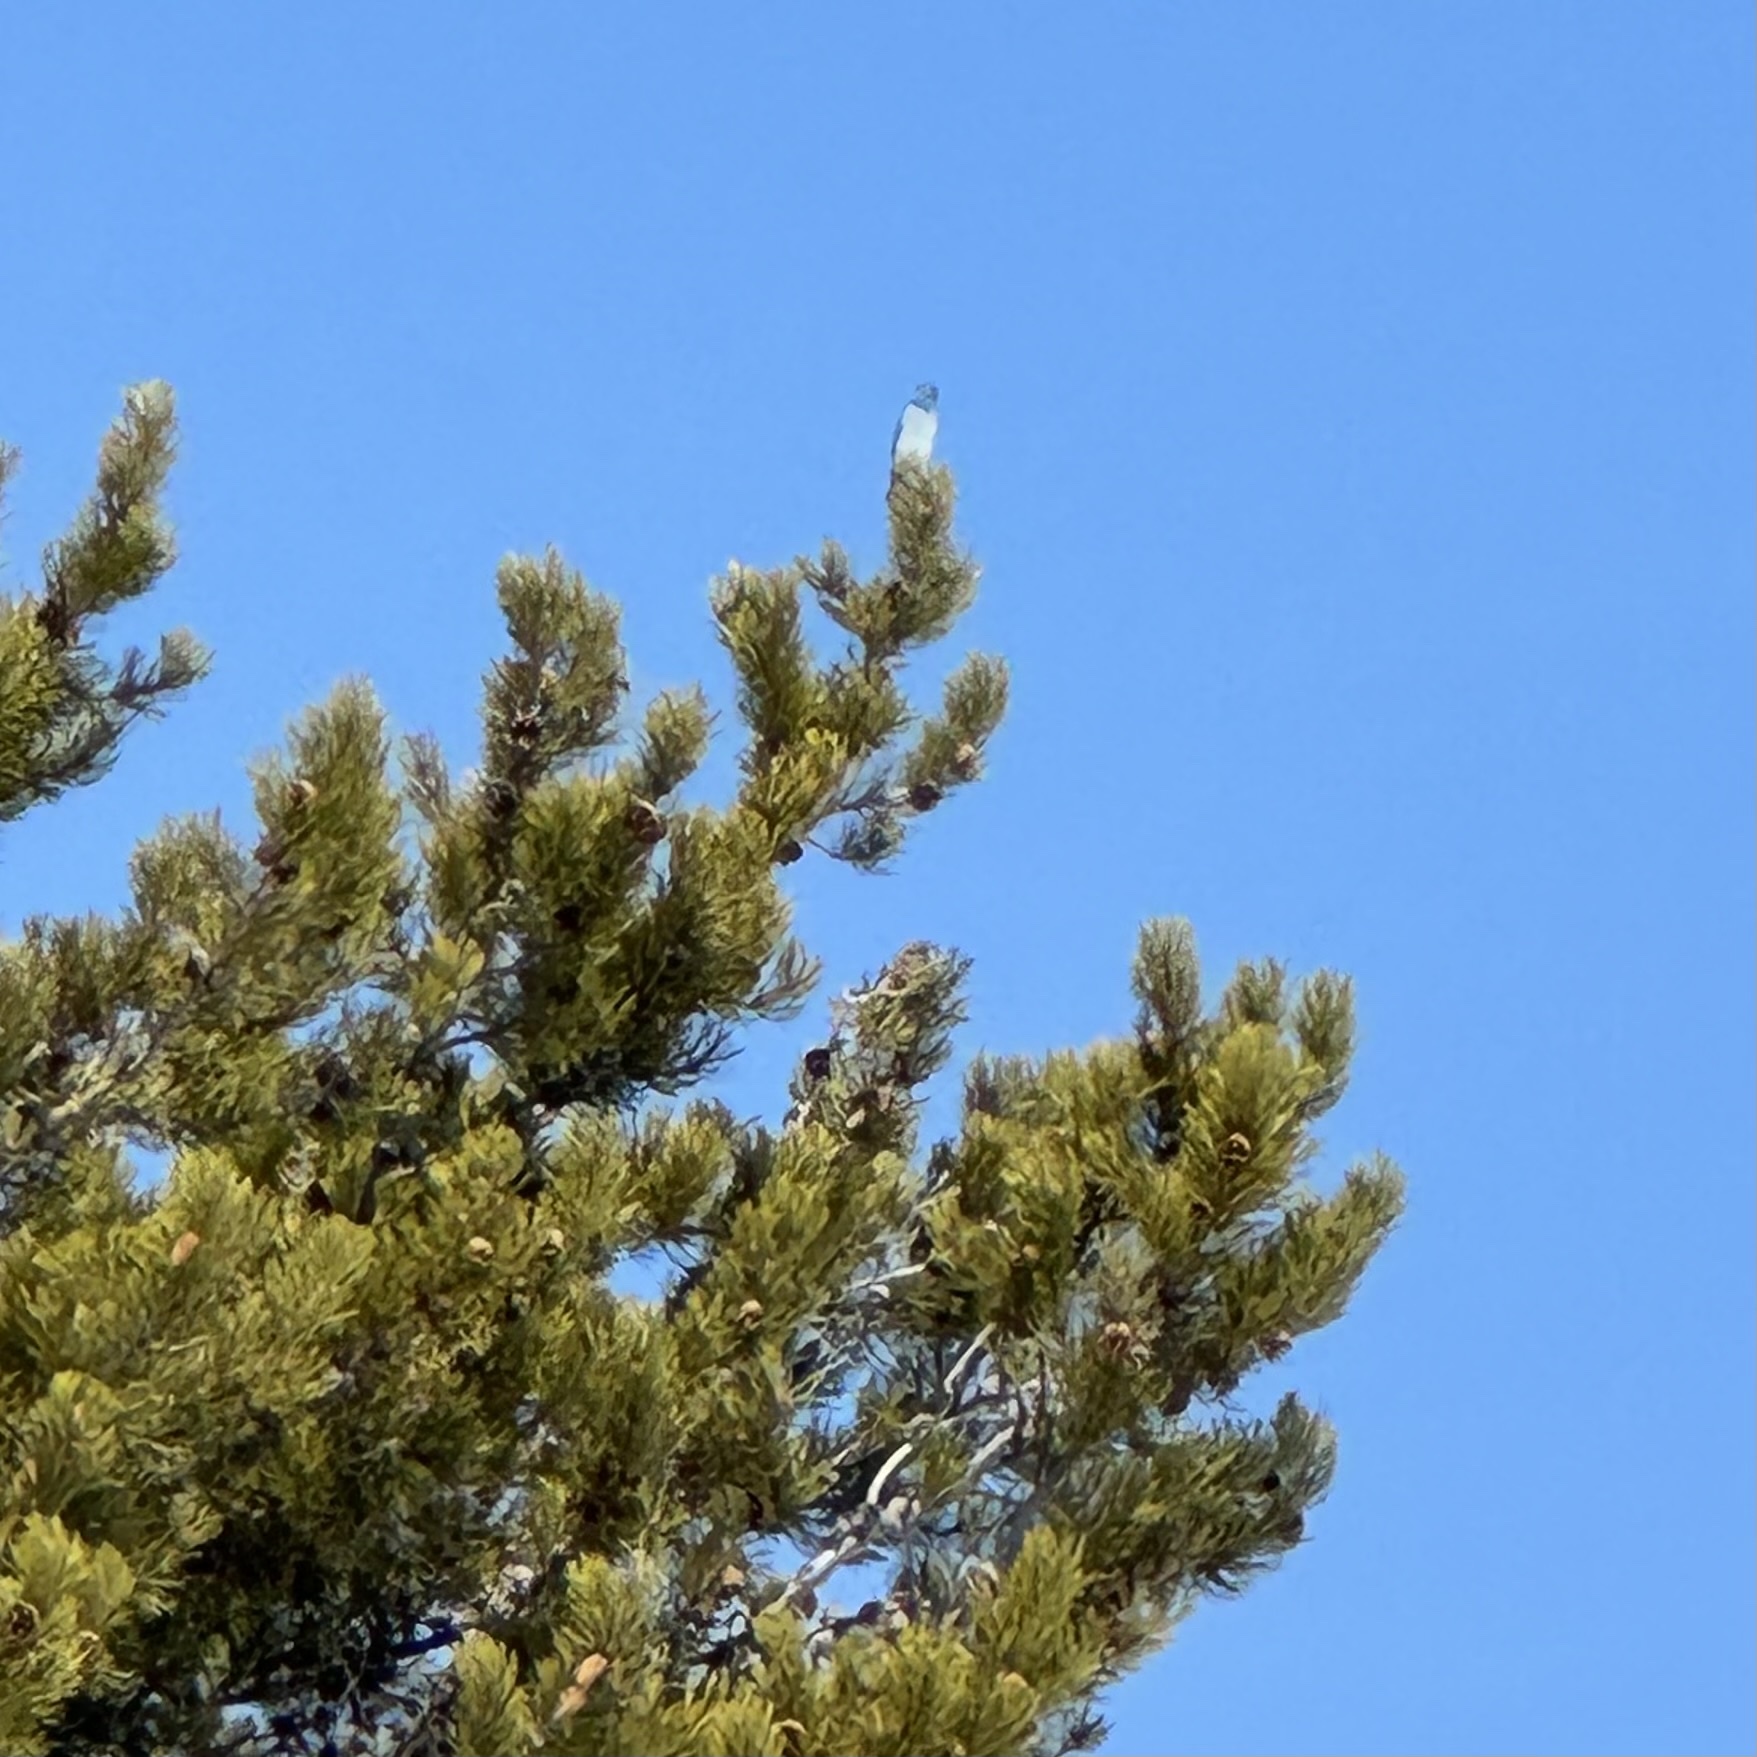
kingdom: Animalia
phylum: Chordata
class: Aves
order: Passeriformes
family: Turdidae
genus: Sialia
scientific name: Sialia currucoides
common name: Mountain bluebird
